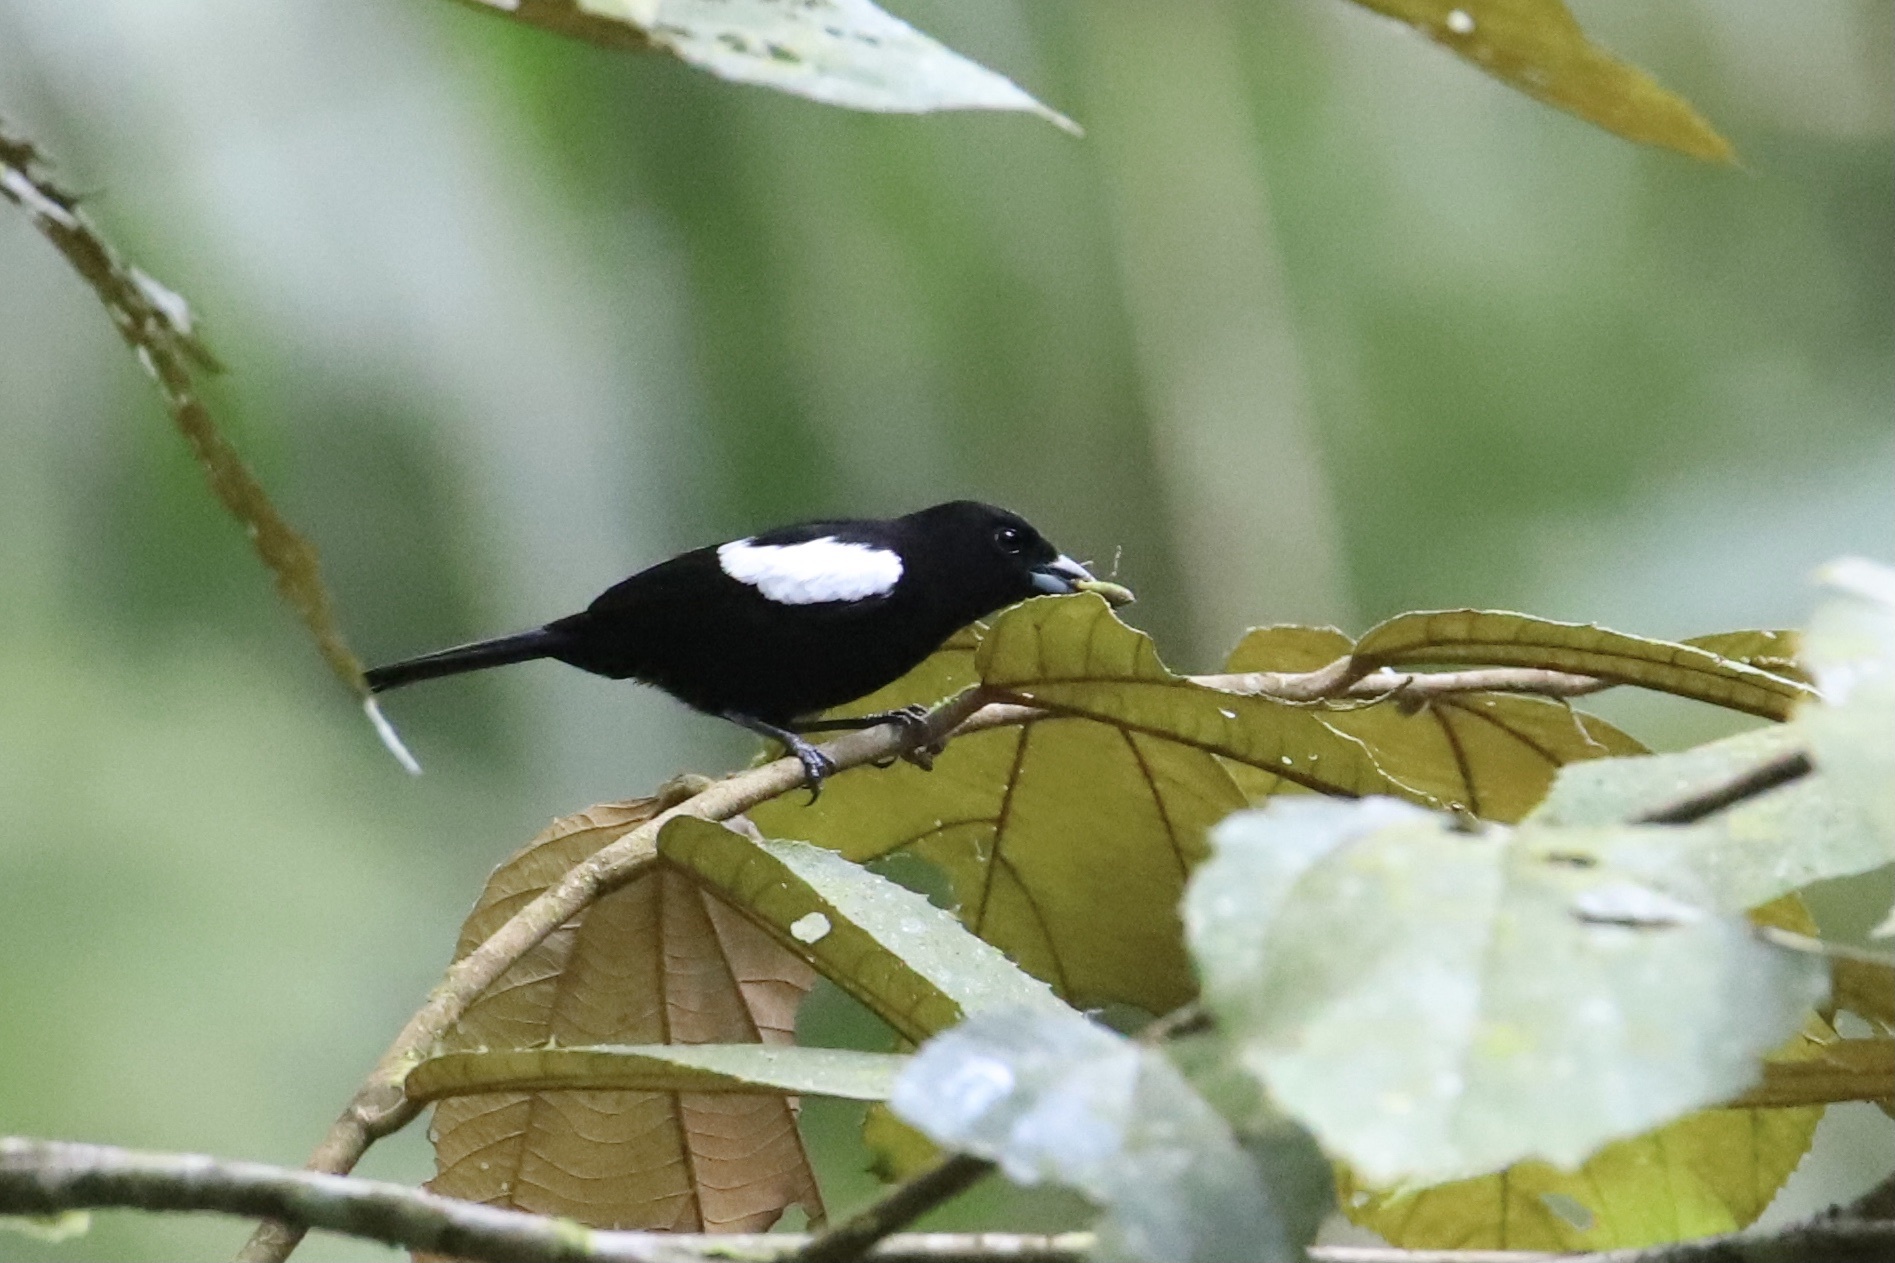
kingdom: Animalia
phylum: Chordata
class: Aves
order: Passeriformes
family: Thraupidae
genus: Loriotus
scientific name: Loriotus luctuosus
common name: White-shouldered tanager
